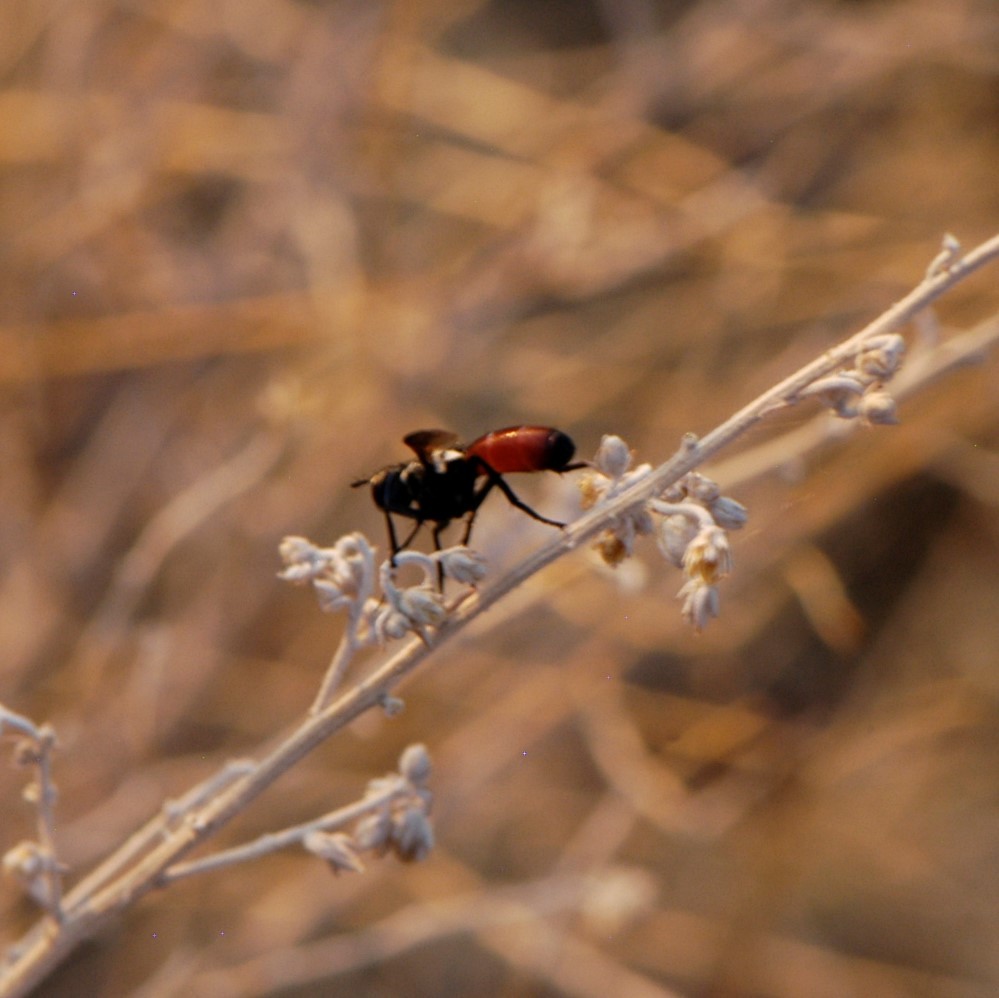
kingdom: Animalia
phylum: Arthropoda
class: Insecta
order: Diptera
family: Tachinidae
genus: Cylindromyia
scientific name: Cylindromyia
